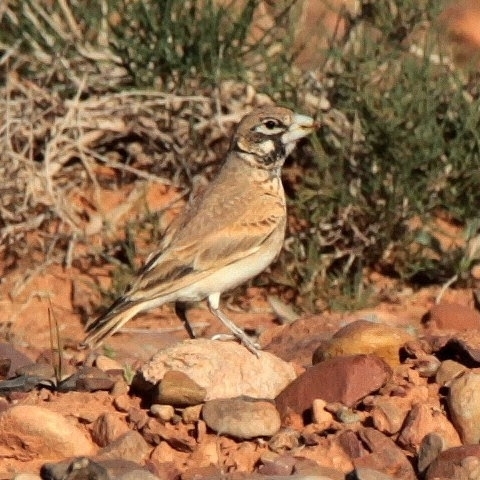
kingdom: Animalia
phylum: Chordata
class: Aves
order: Passeriformes
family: Alaudidae
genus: Ramphocoris
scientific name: Ramphocoris clotbey
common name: Thick-billed lark
